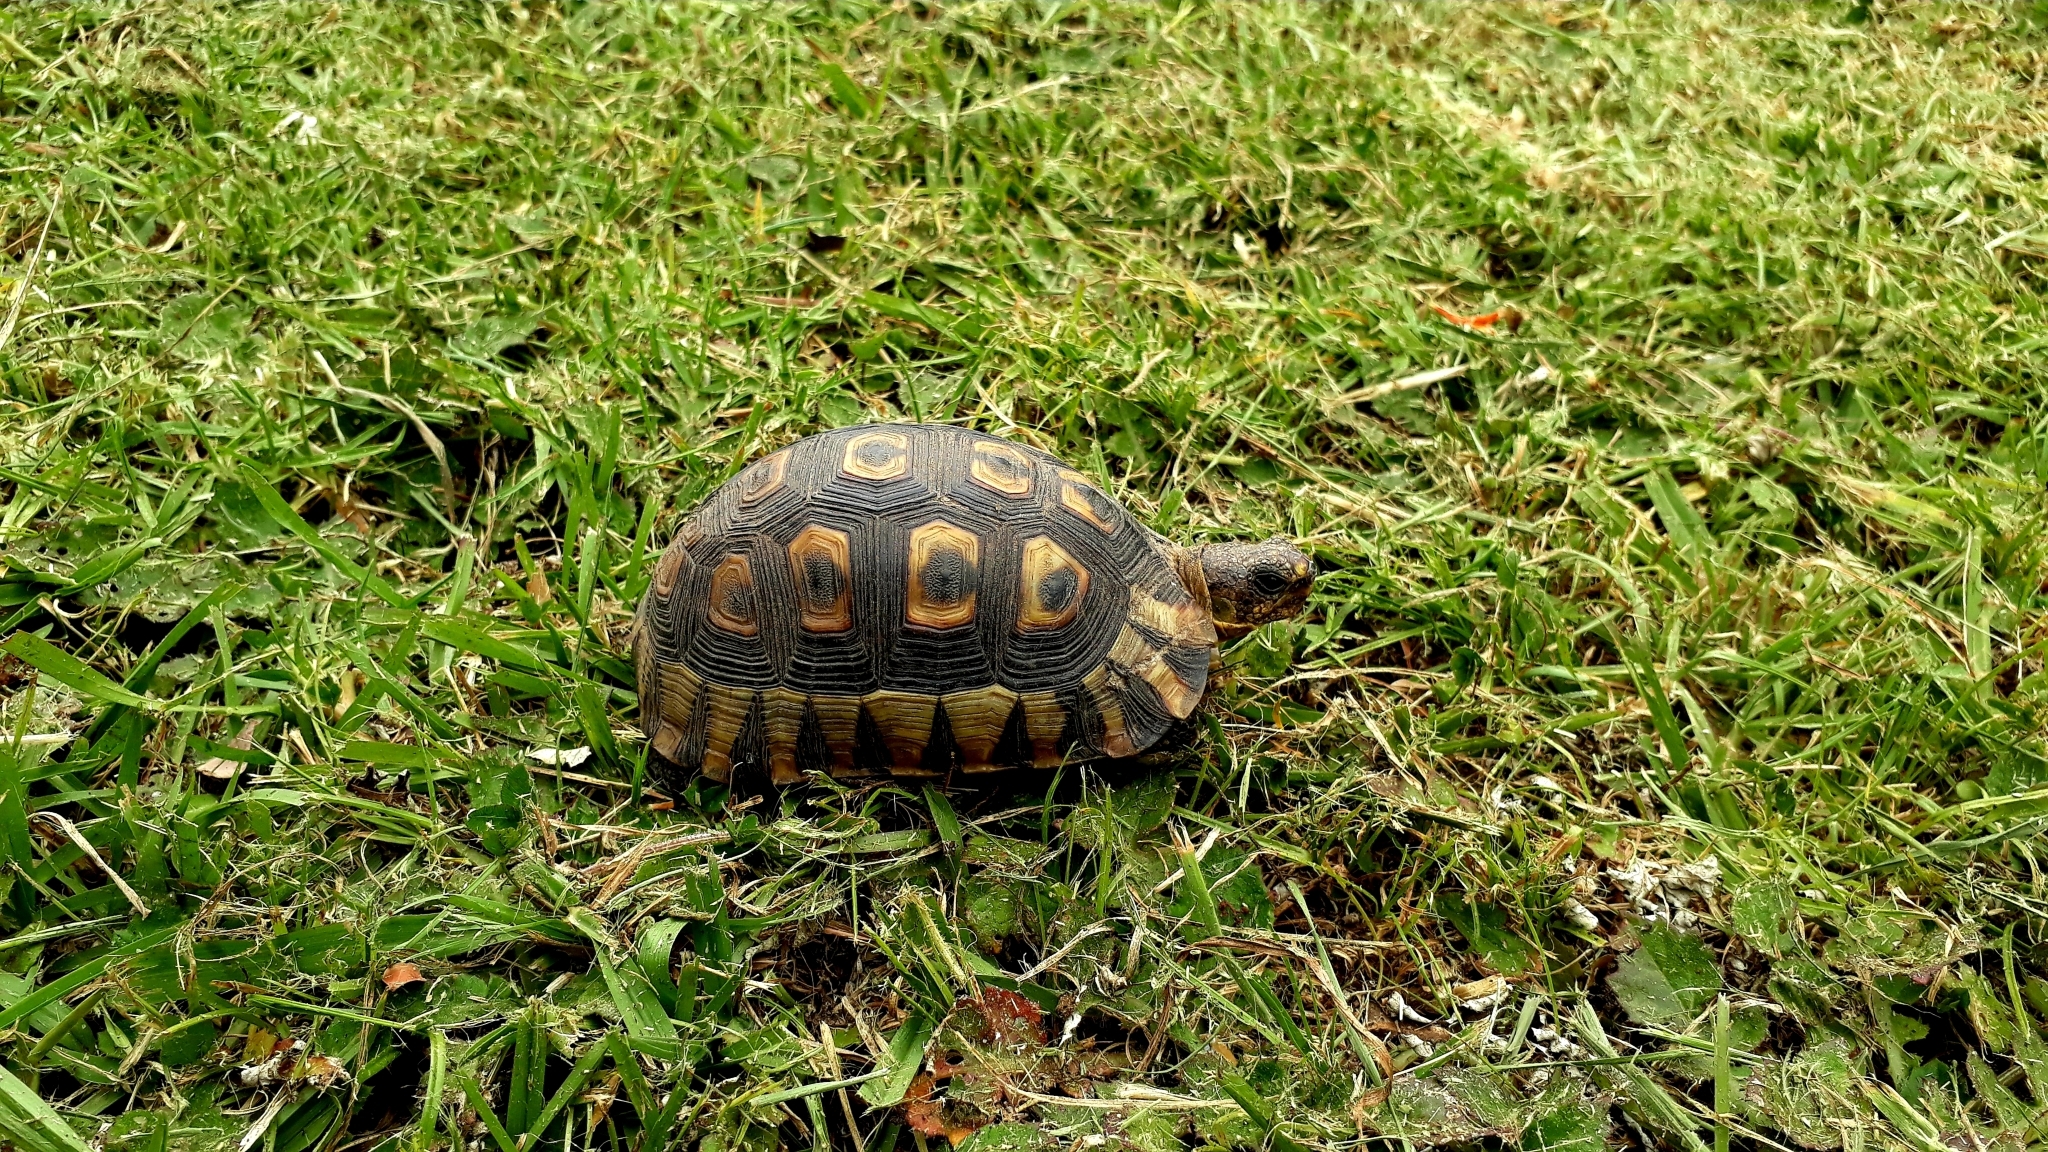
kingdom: Animalia
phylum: Chordata
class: Testudines
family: Testudinidae
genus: Chersina
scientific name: Chersina angulata
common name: South african bowsprit tortoise
